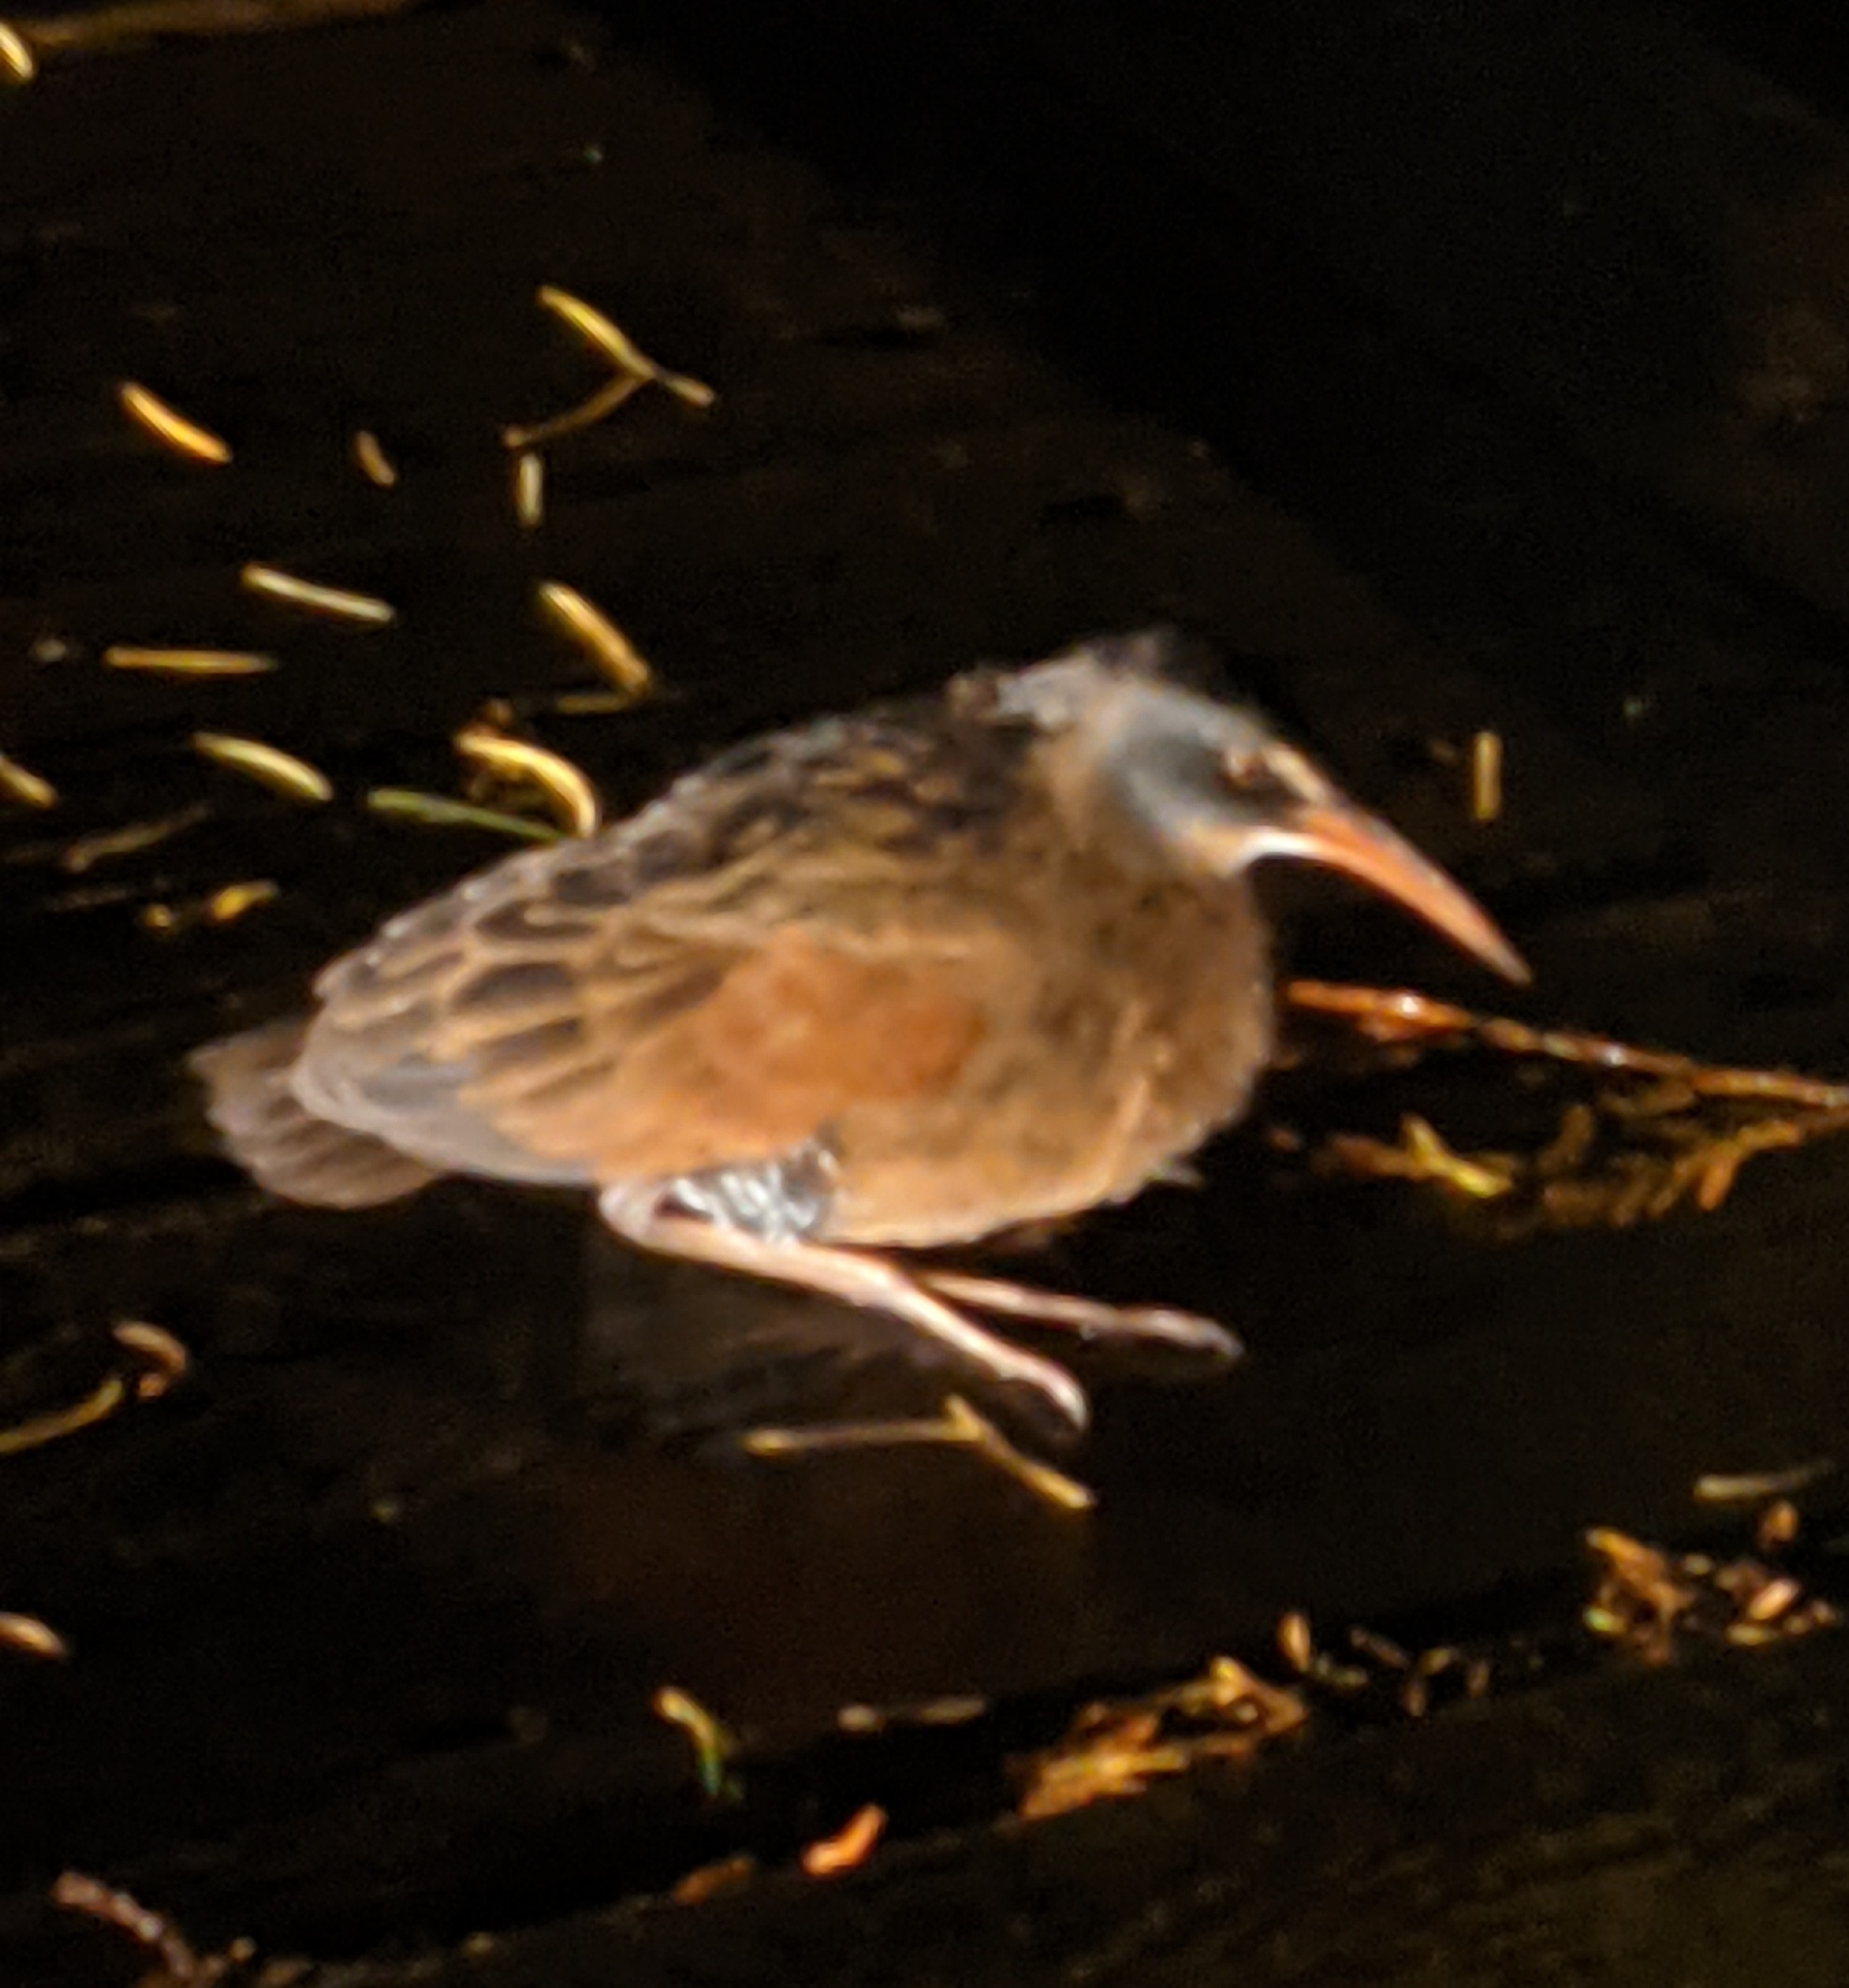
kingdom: Animalia
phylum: Chordata
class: Aves
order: Gruiformes
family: Rallidae
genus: Rallus
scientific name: Rallus limicola
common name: Virginia rail
